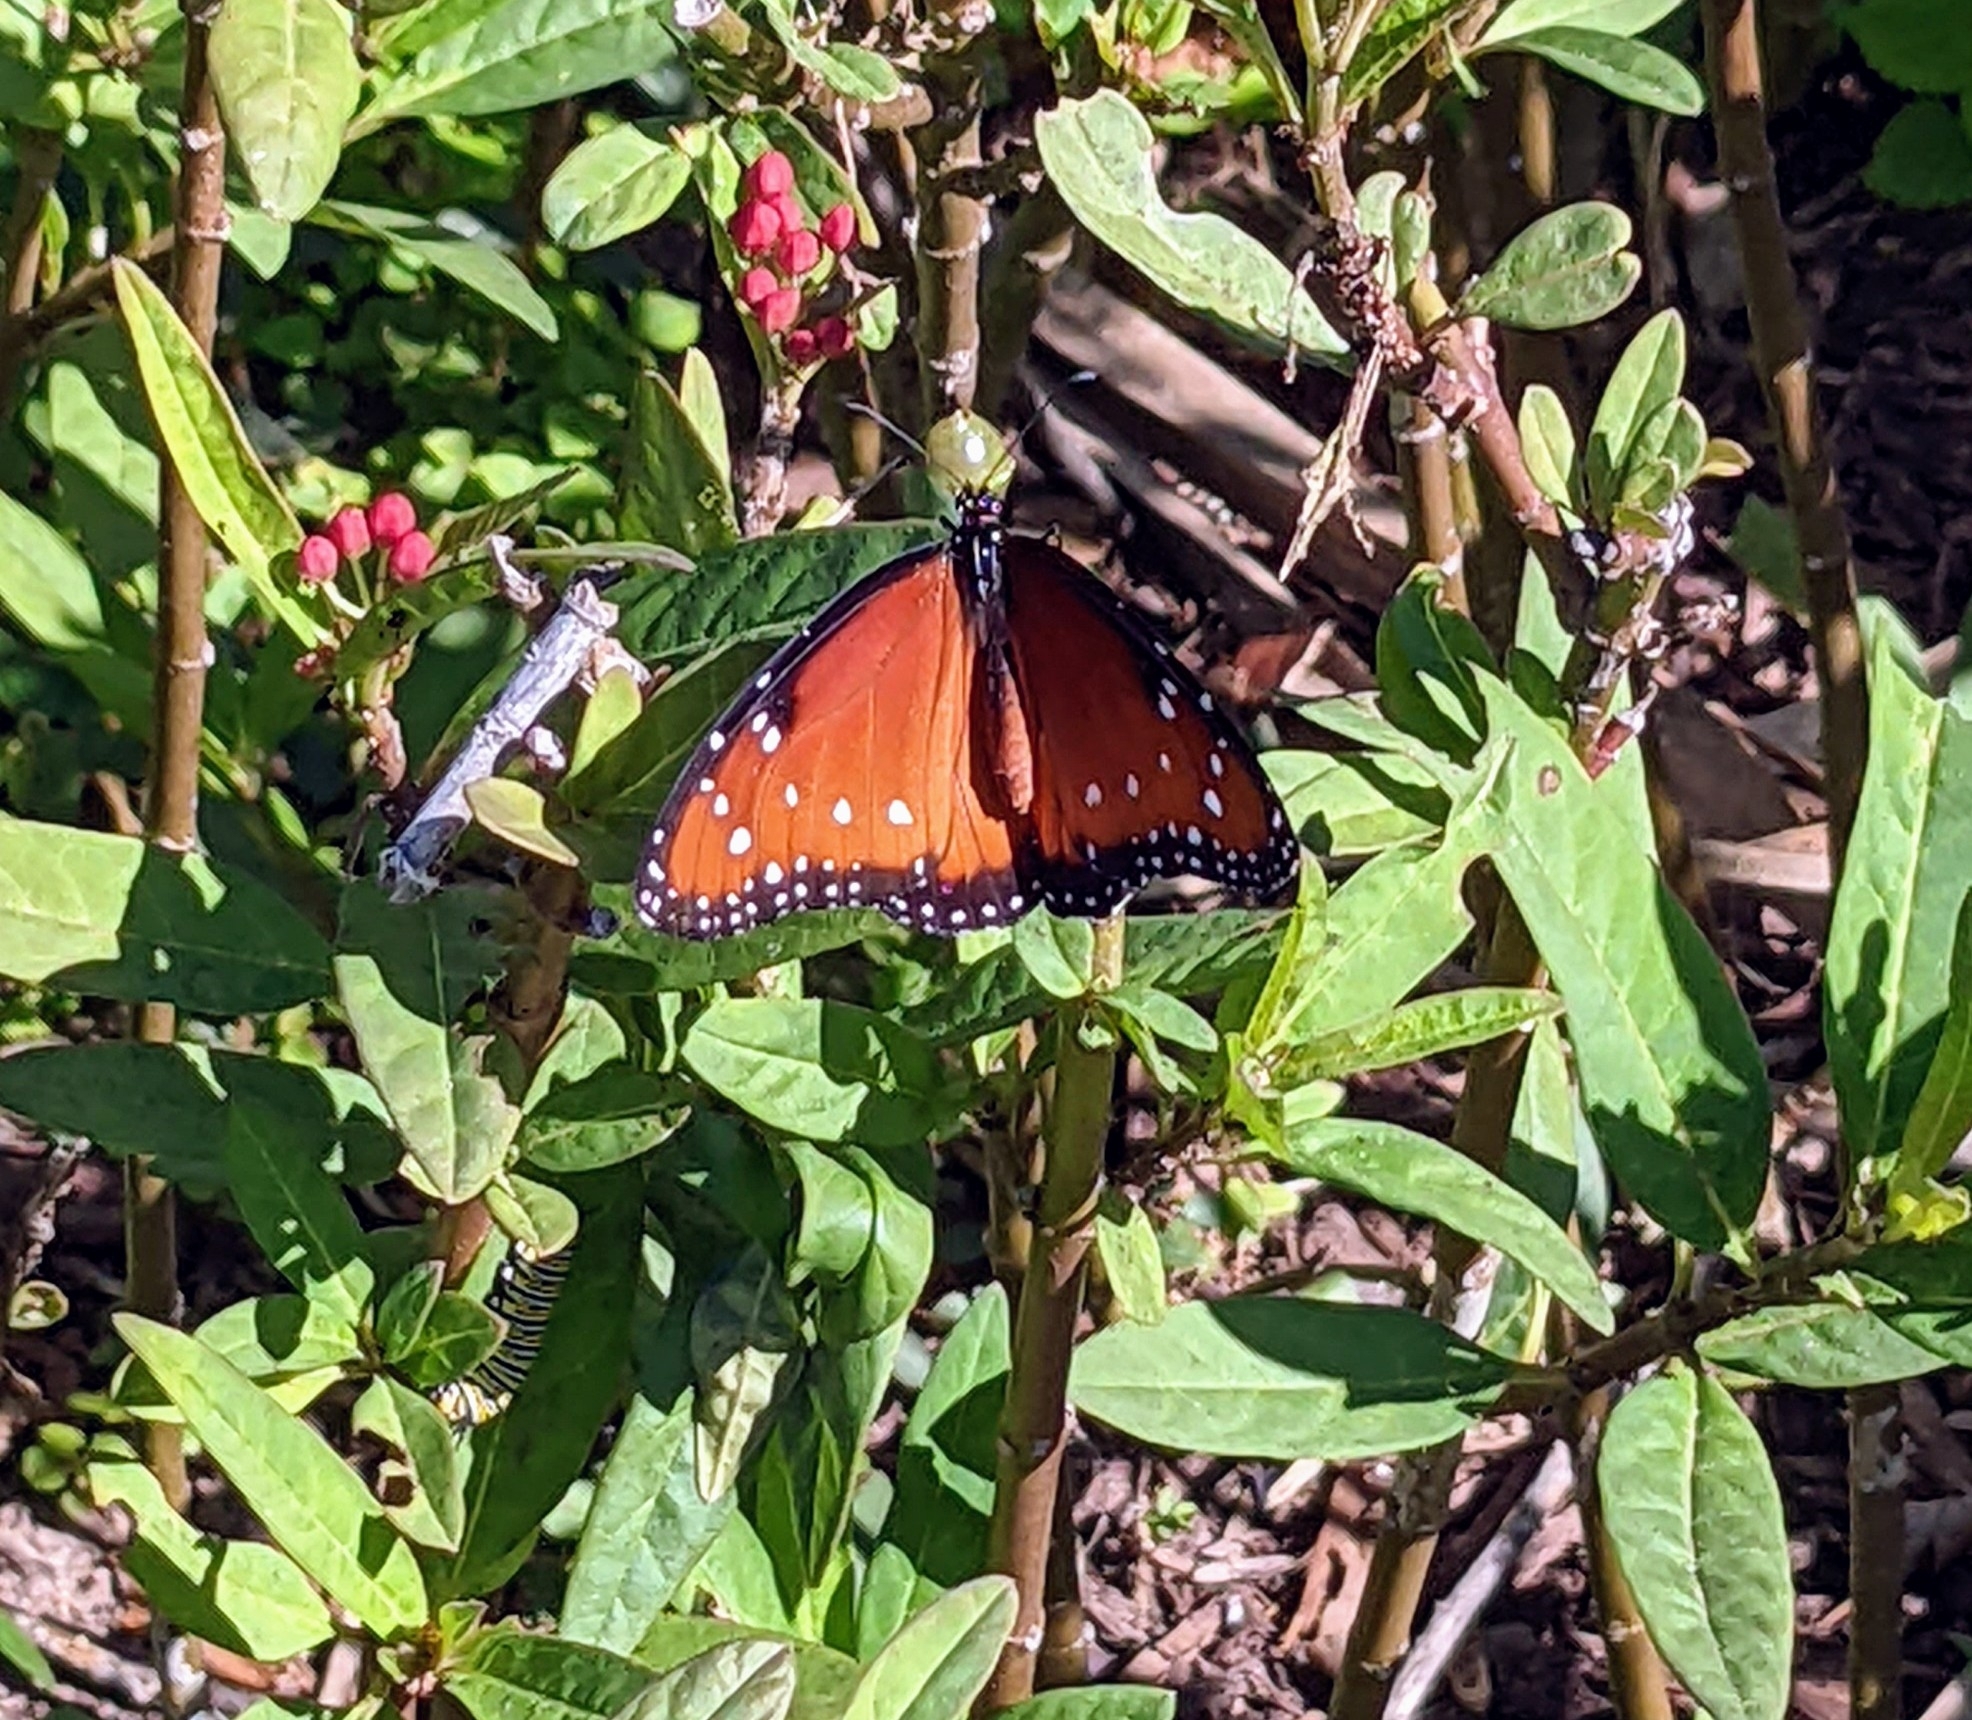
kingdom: Animalia
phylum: Arthropoda
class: Insecta
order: Lepidoptera
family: Nymphalidae
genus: Danaus
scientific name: Danaus gilippus
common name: Queen
